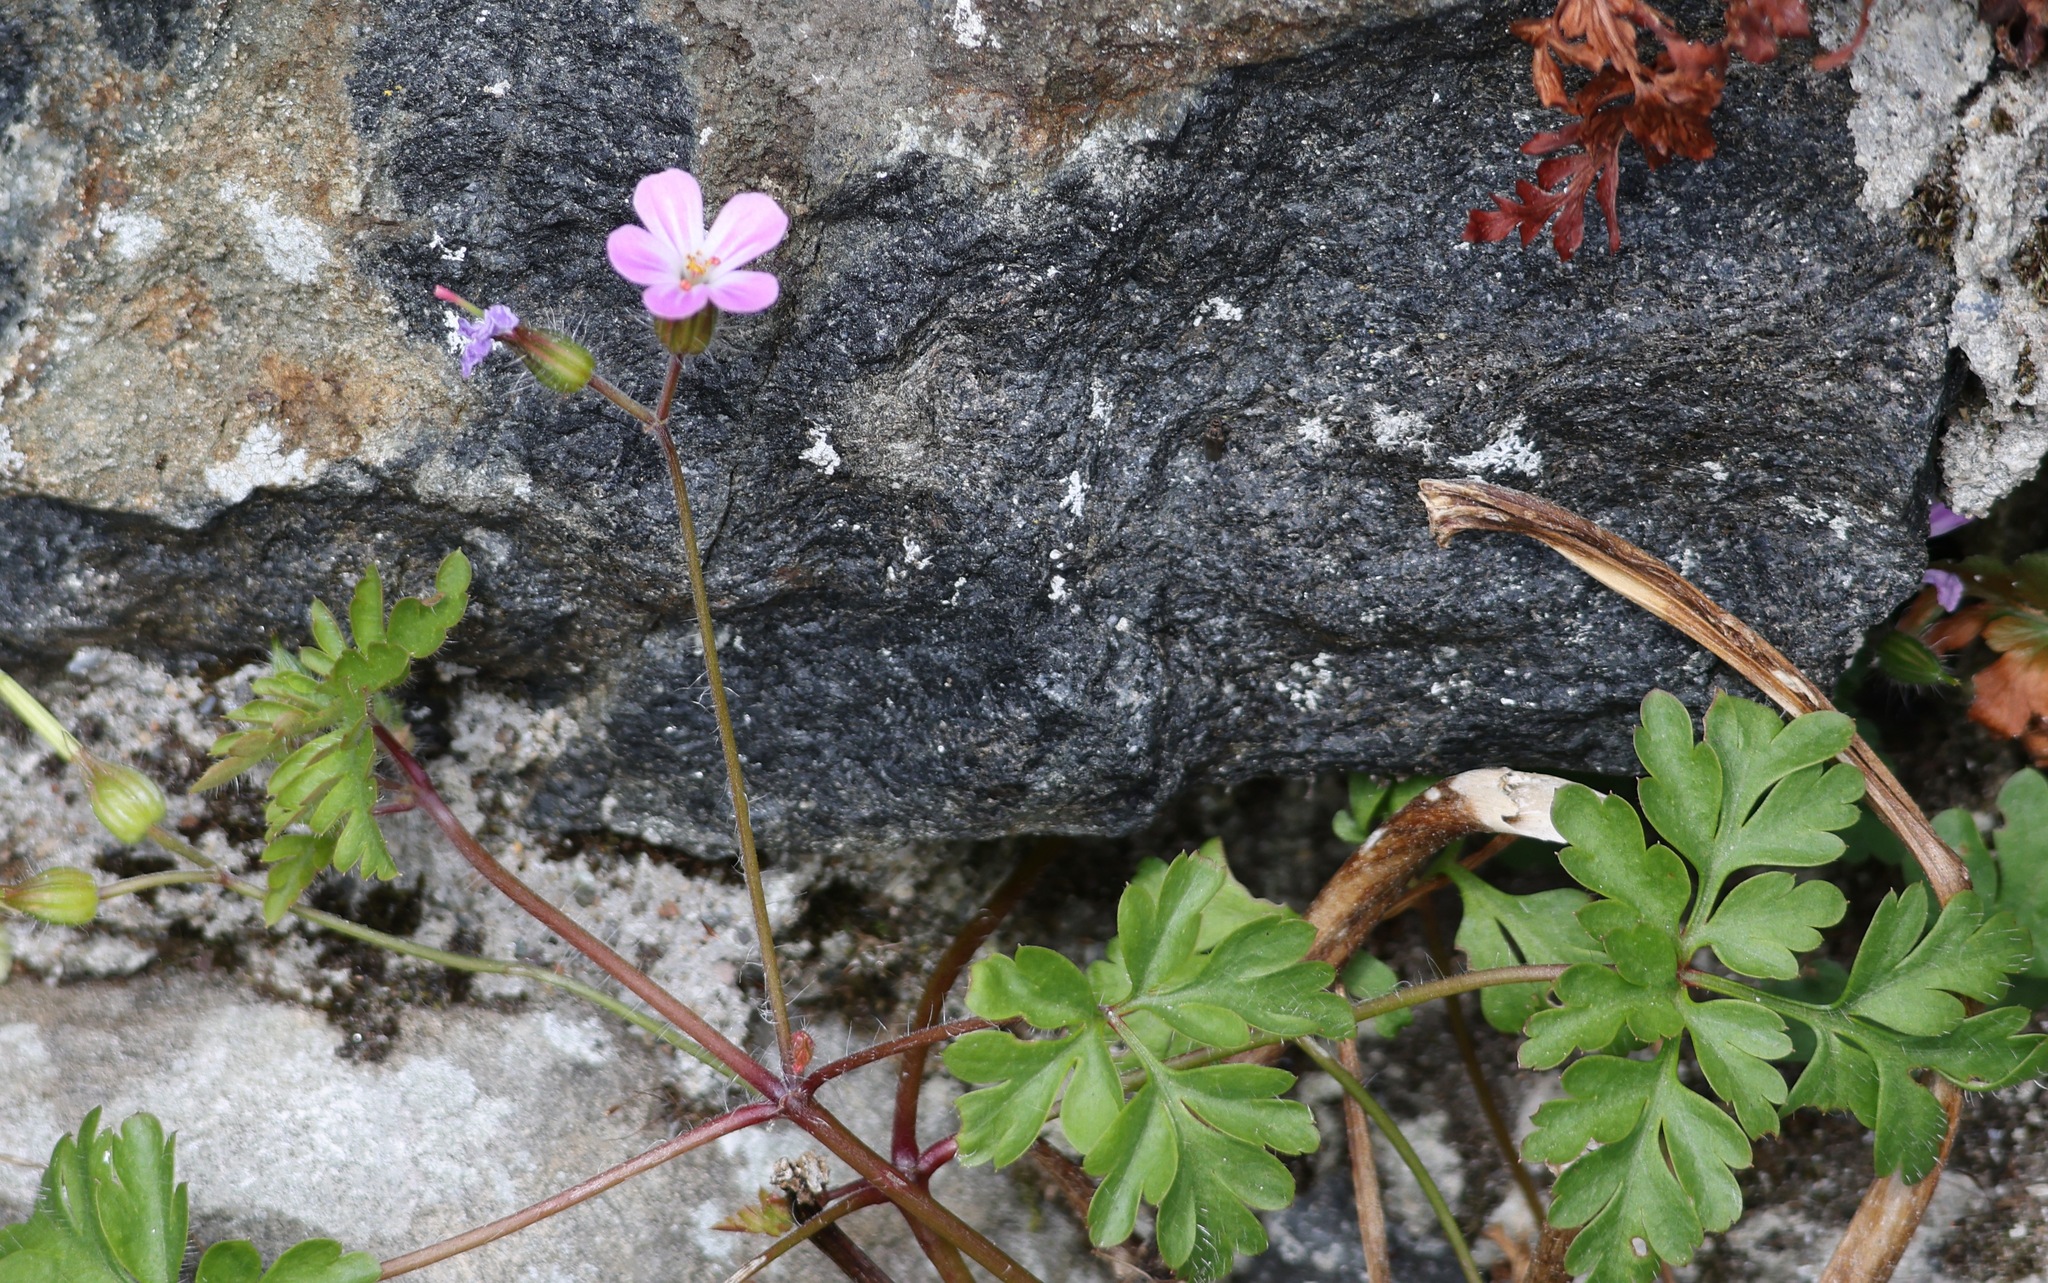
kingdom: Plantae
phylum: Tracheophyta
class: Magnoliopsida
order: Geraniales
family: Geraniaceae
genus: Geranium
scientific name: Geranium robertianum
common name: Herb-robert
